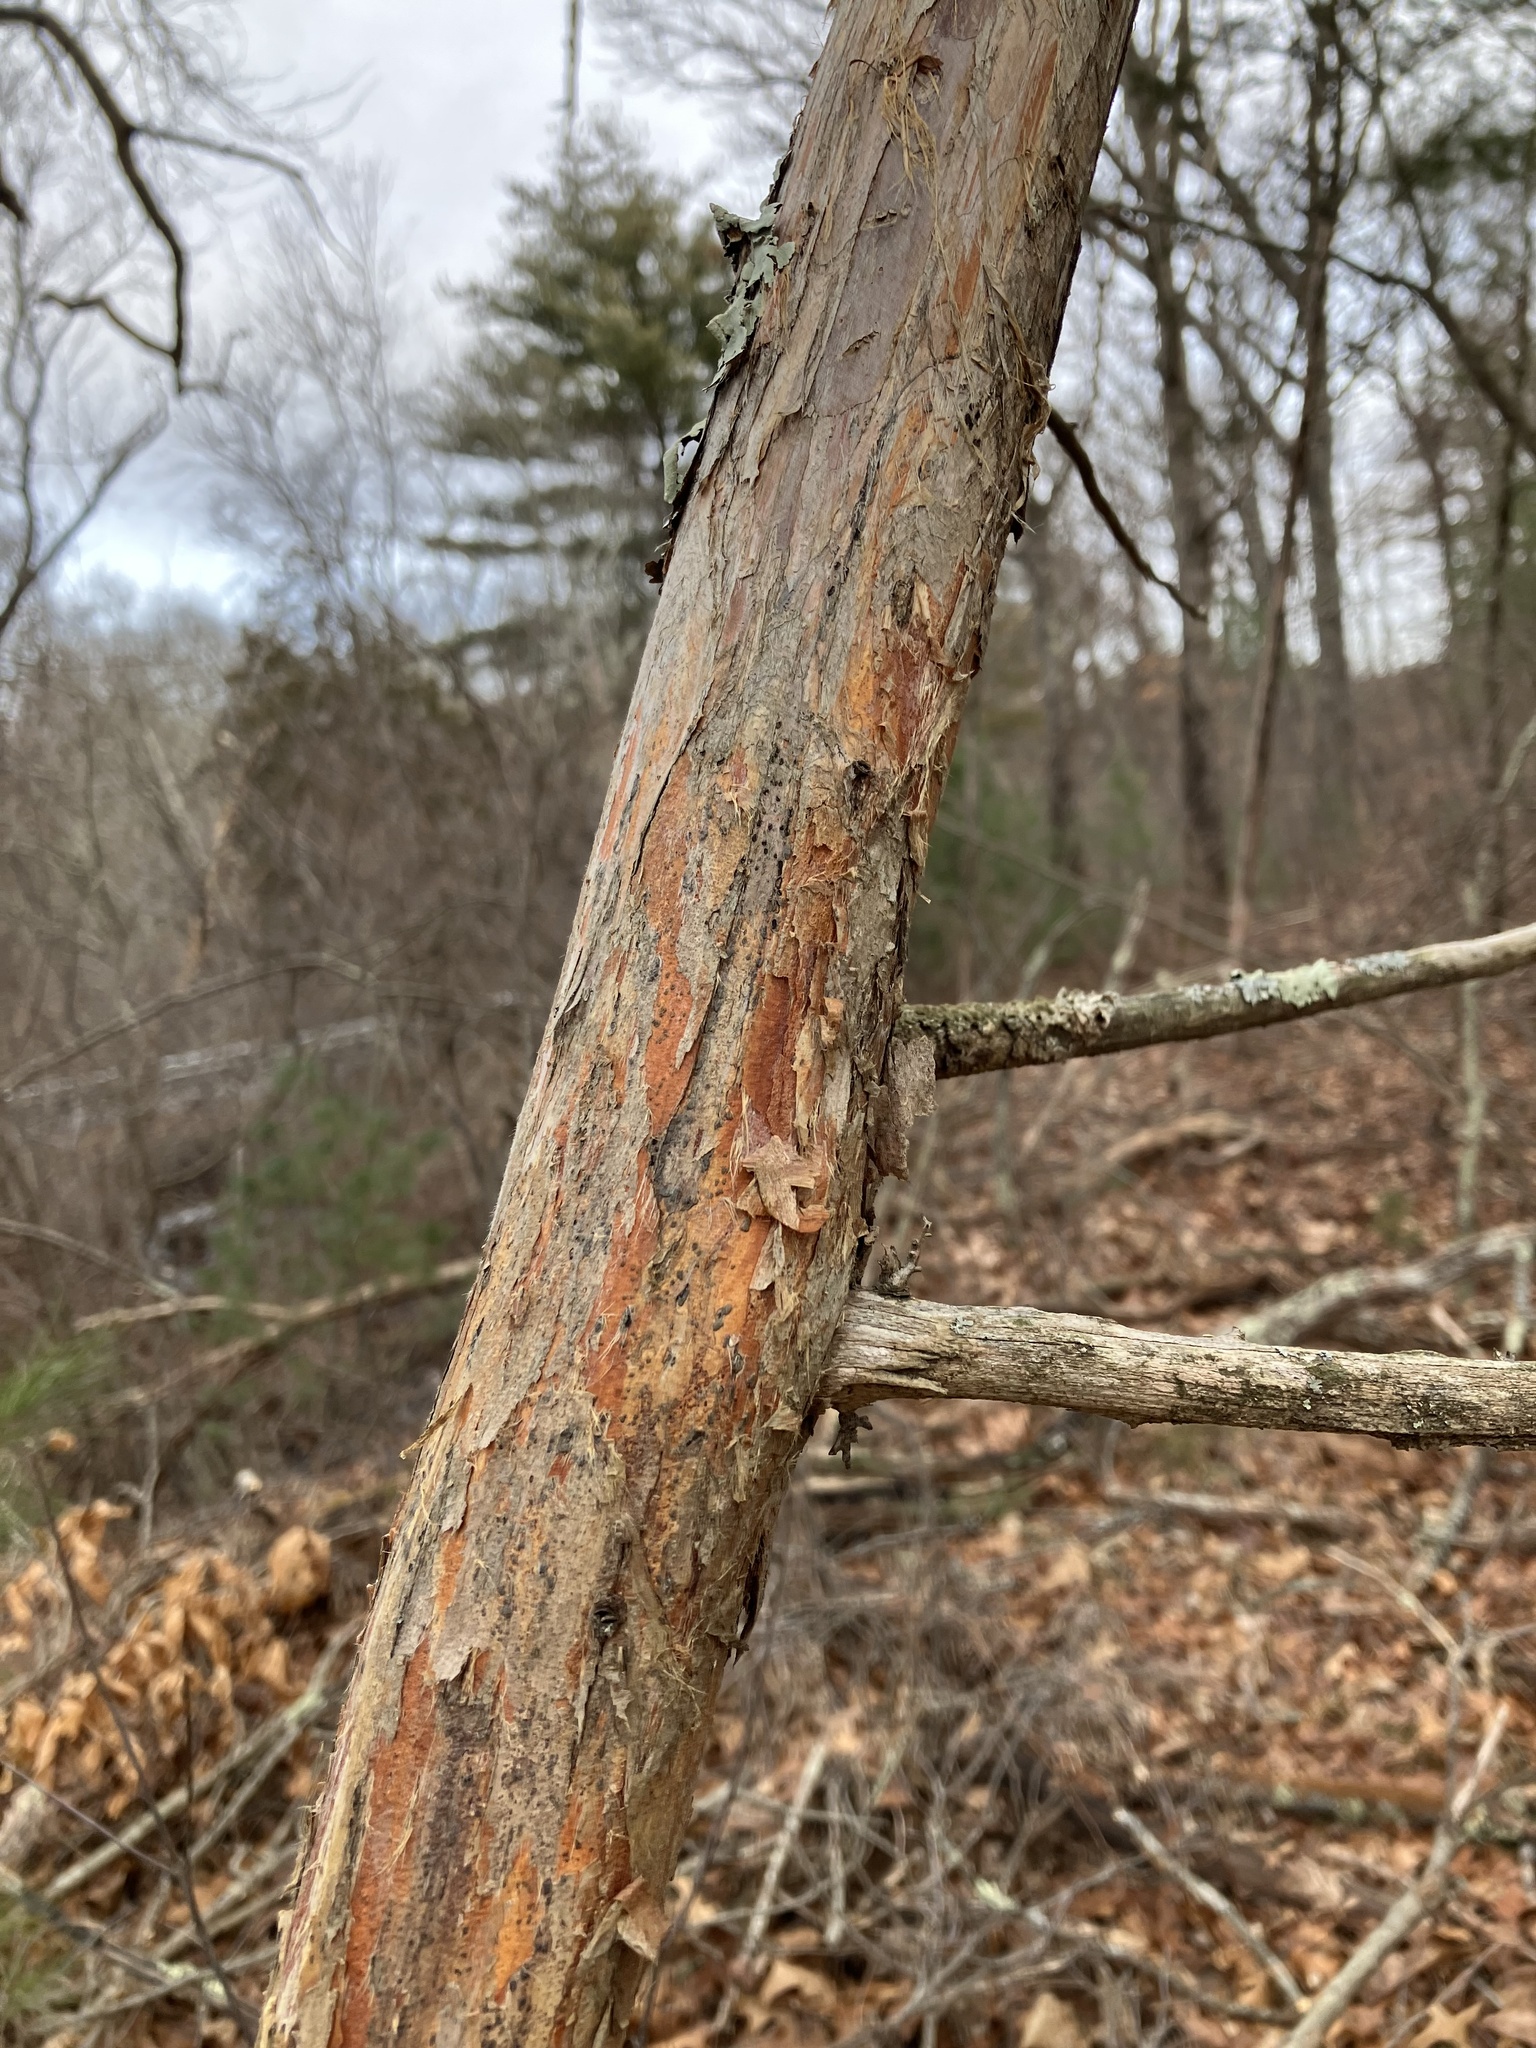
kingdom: Plantae
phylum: Tracheophyta
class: Pinopsida
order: Pinales
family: Cupressaceae
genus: Juniperus
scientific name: Juniperus virginiana
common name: Red juniper
